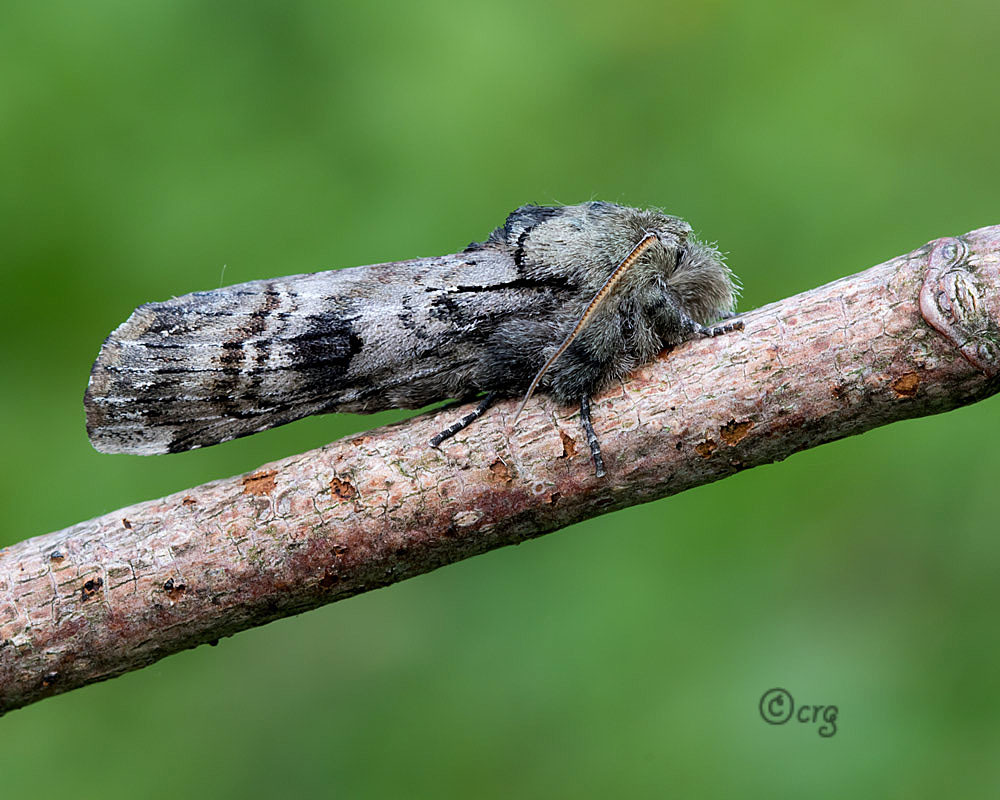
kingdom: Animalia
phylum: Arthropoda
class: Insecta
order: Lepidoptera
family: Notodontidae
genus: Schizura
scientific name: Schizura
